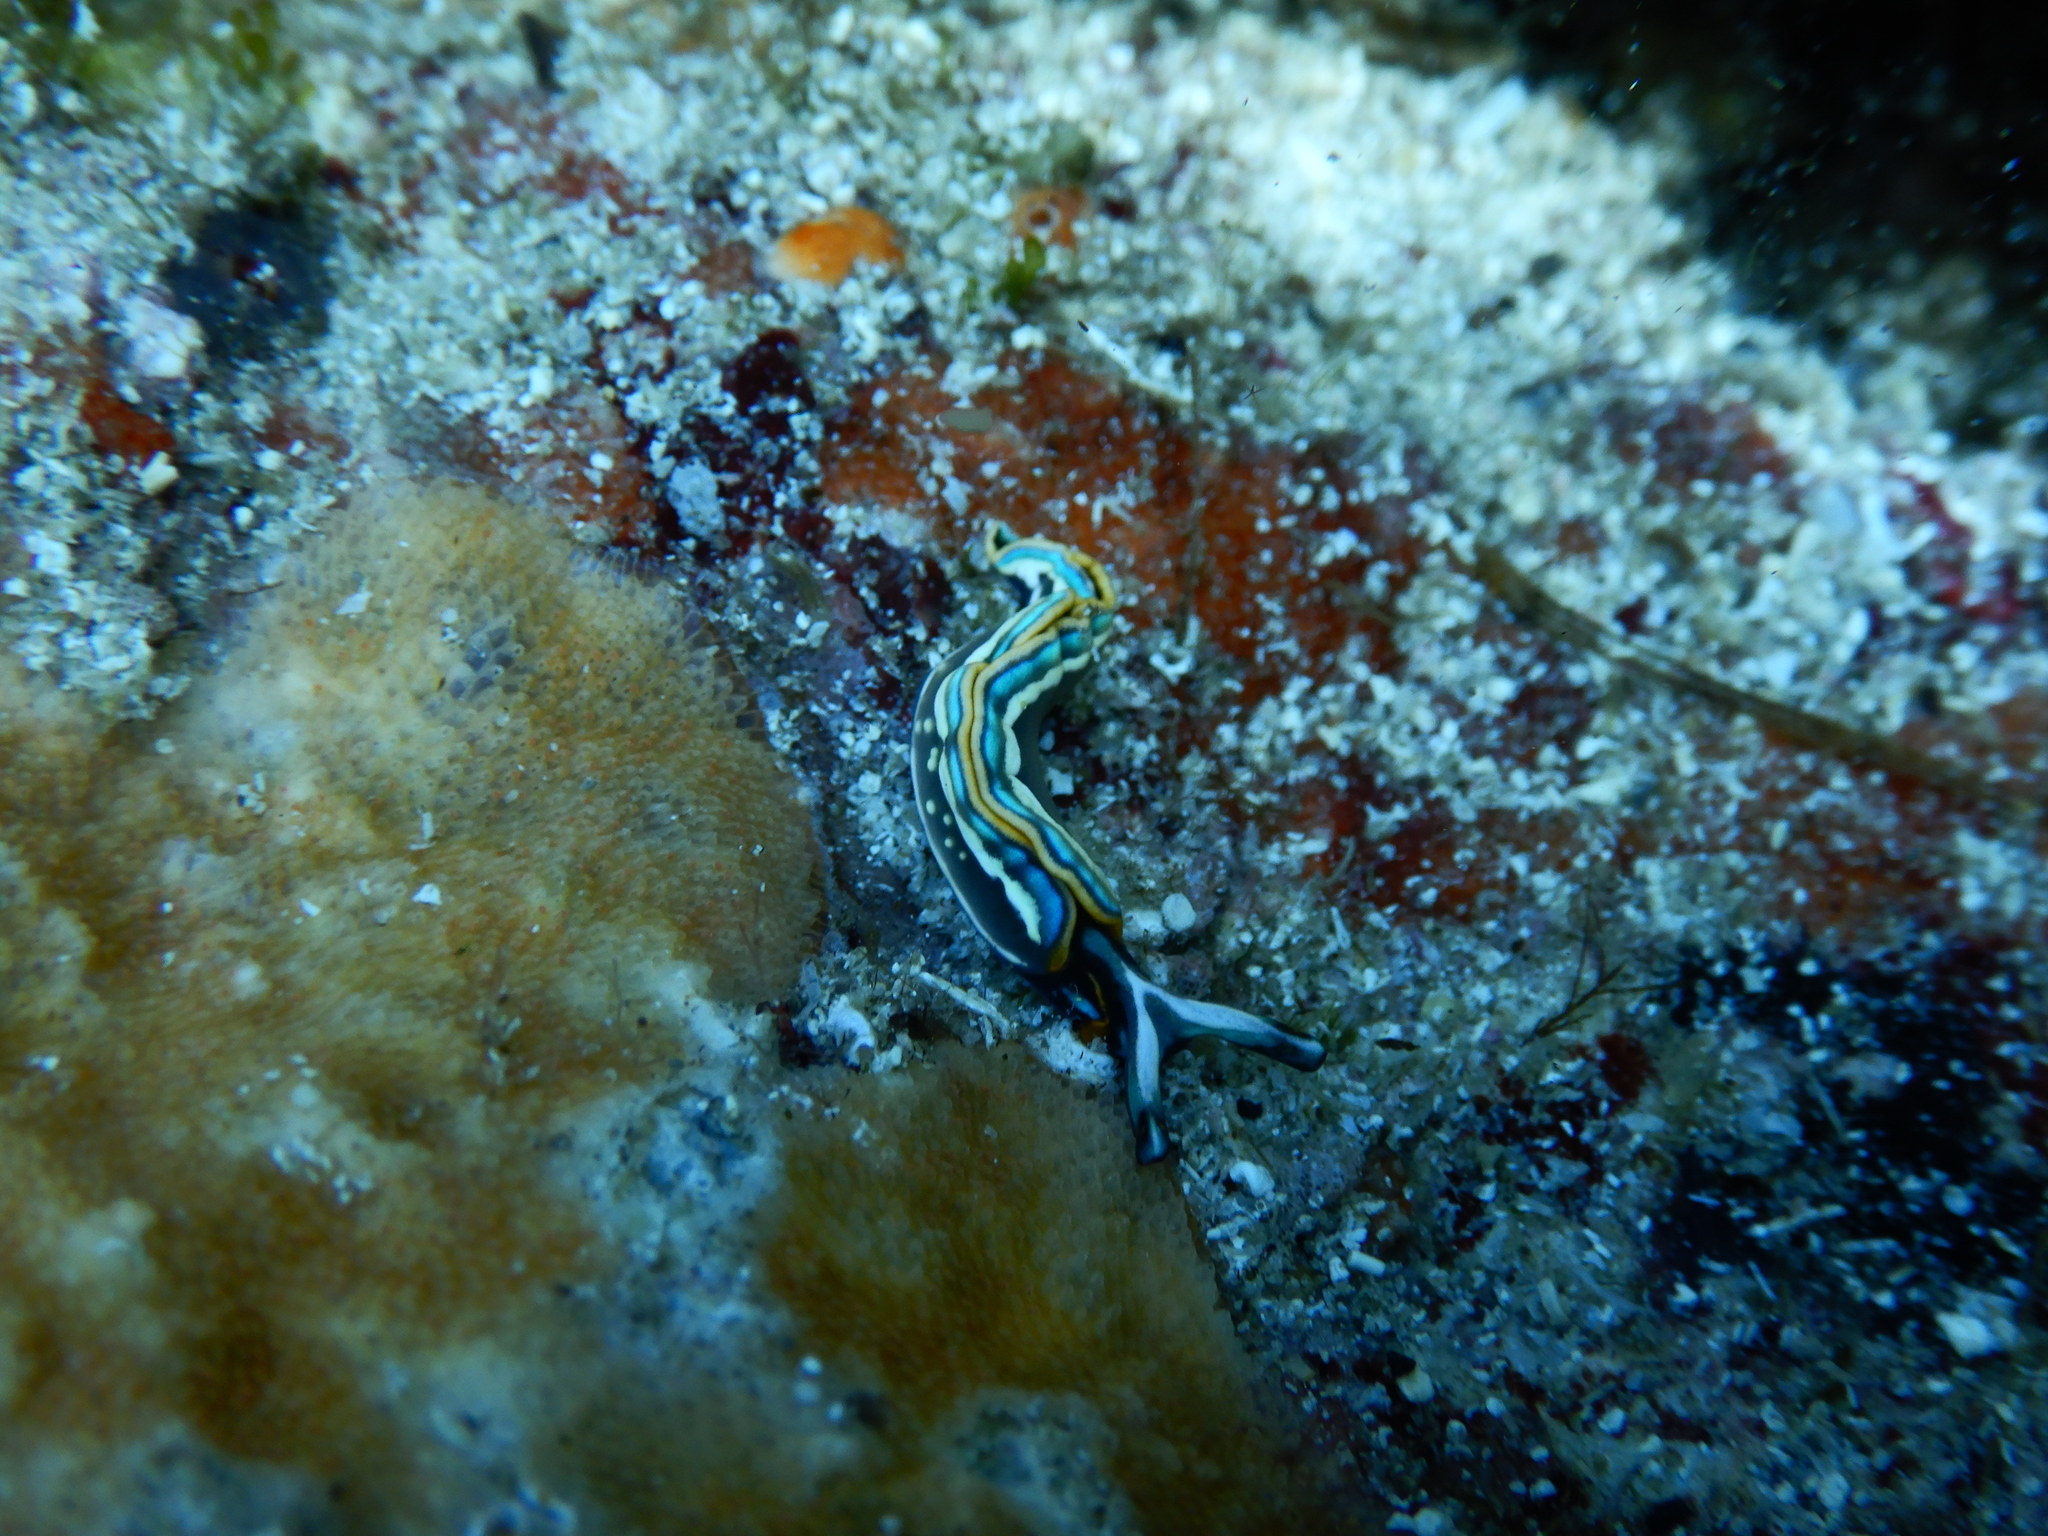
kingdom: Animalia
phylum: Mollusca
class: Gastropoda
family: Plakobranchidae
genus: Thuridilla
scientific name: Thuridilla hopei
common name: Splendid elysia
